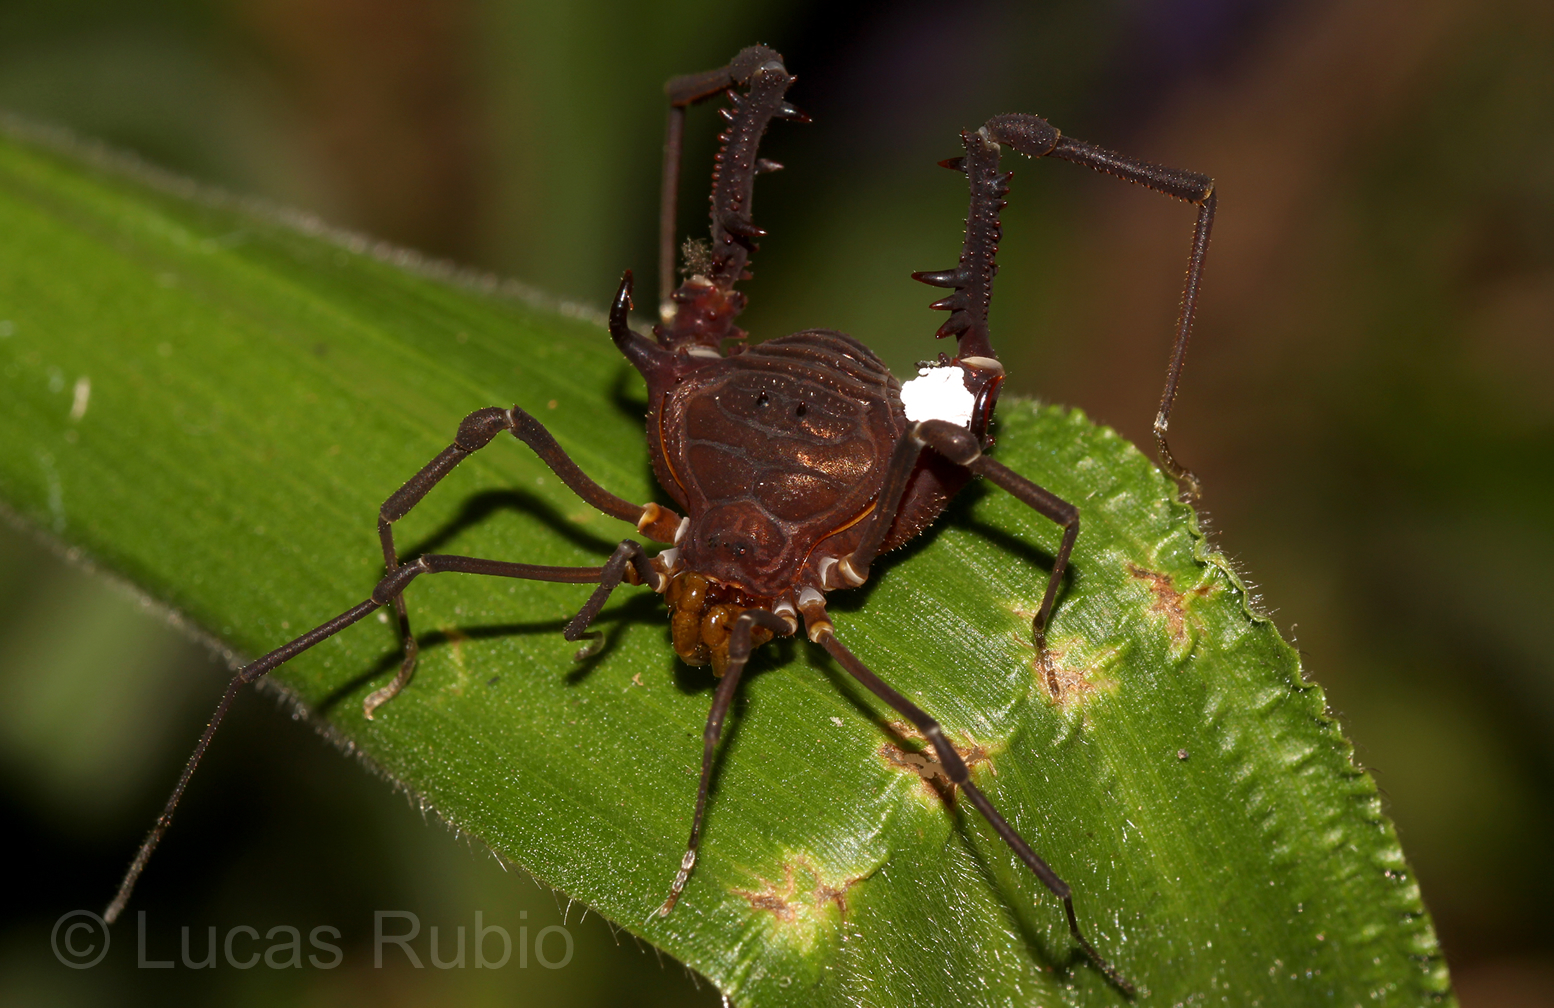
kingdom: Animalia
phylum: Arthropoda
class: Arachnida
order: Opiliones
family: Gonyleptidae
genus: Opisthoplatus
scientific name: Opisthoplatus vegetus
